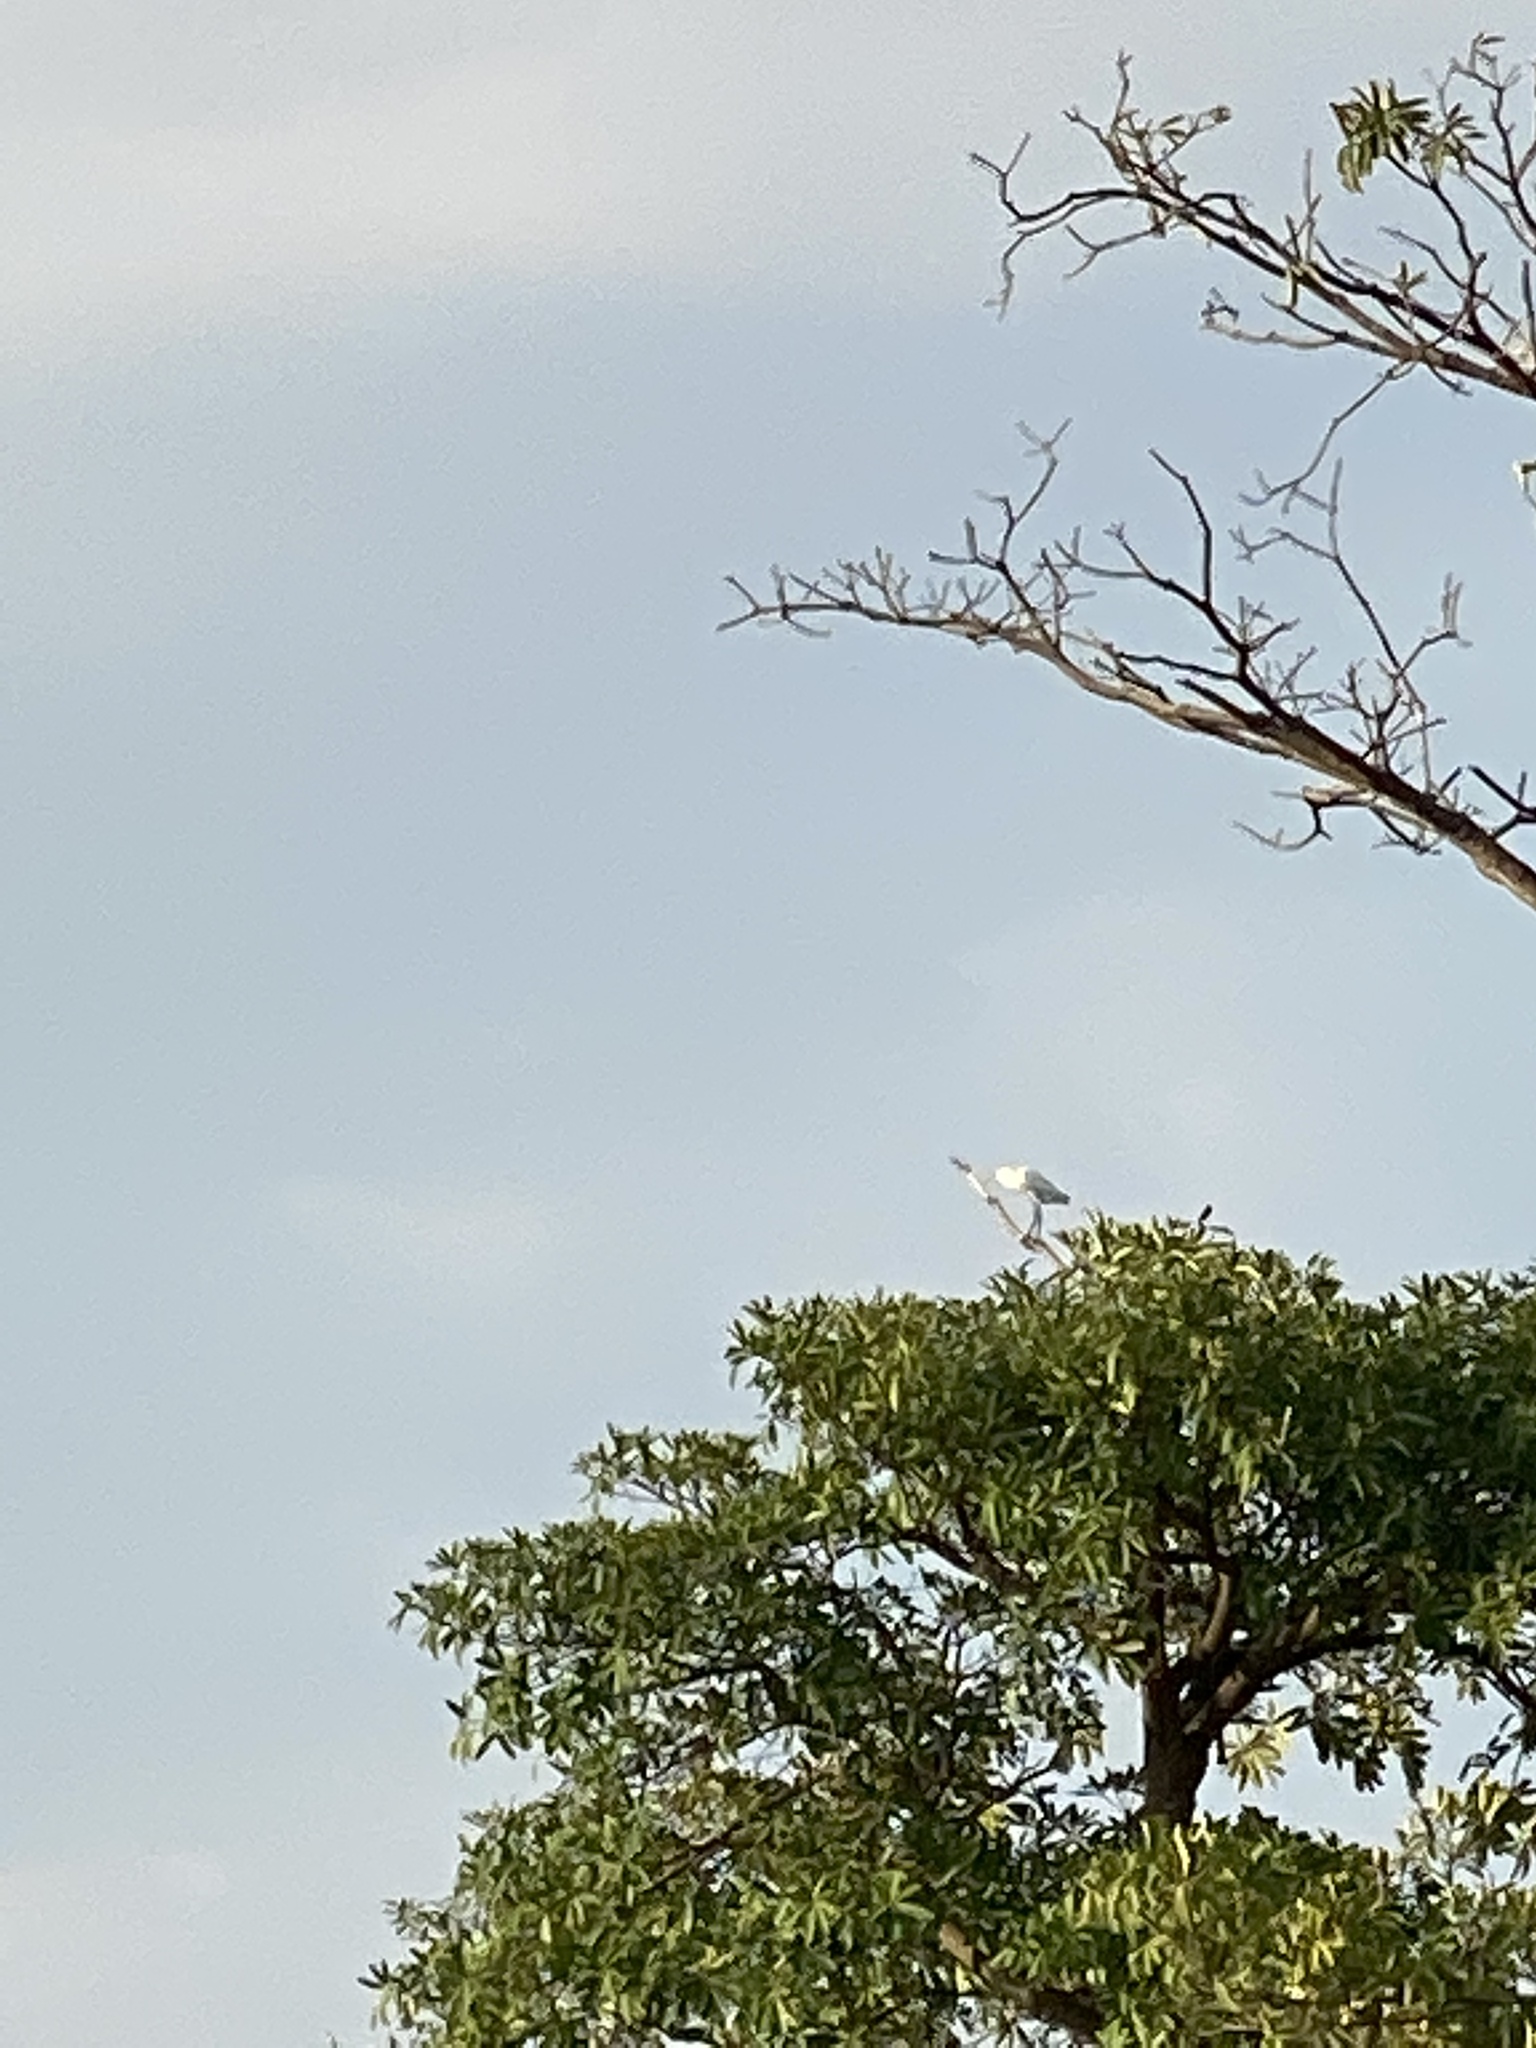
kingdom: Animalia
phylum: Chordata
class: Aves
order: Pelecaniformes
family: Ardeidae
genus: Ardea
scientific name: Ardea cinerea
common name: Grey heron
